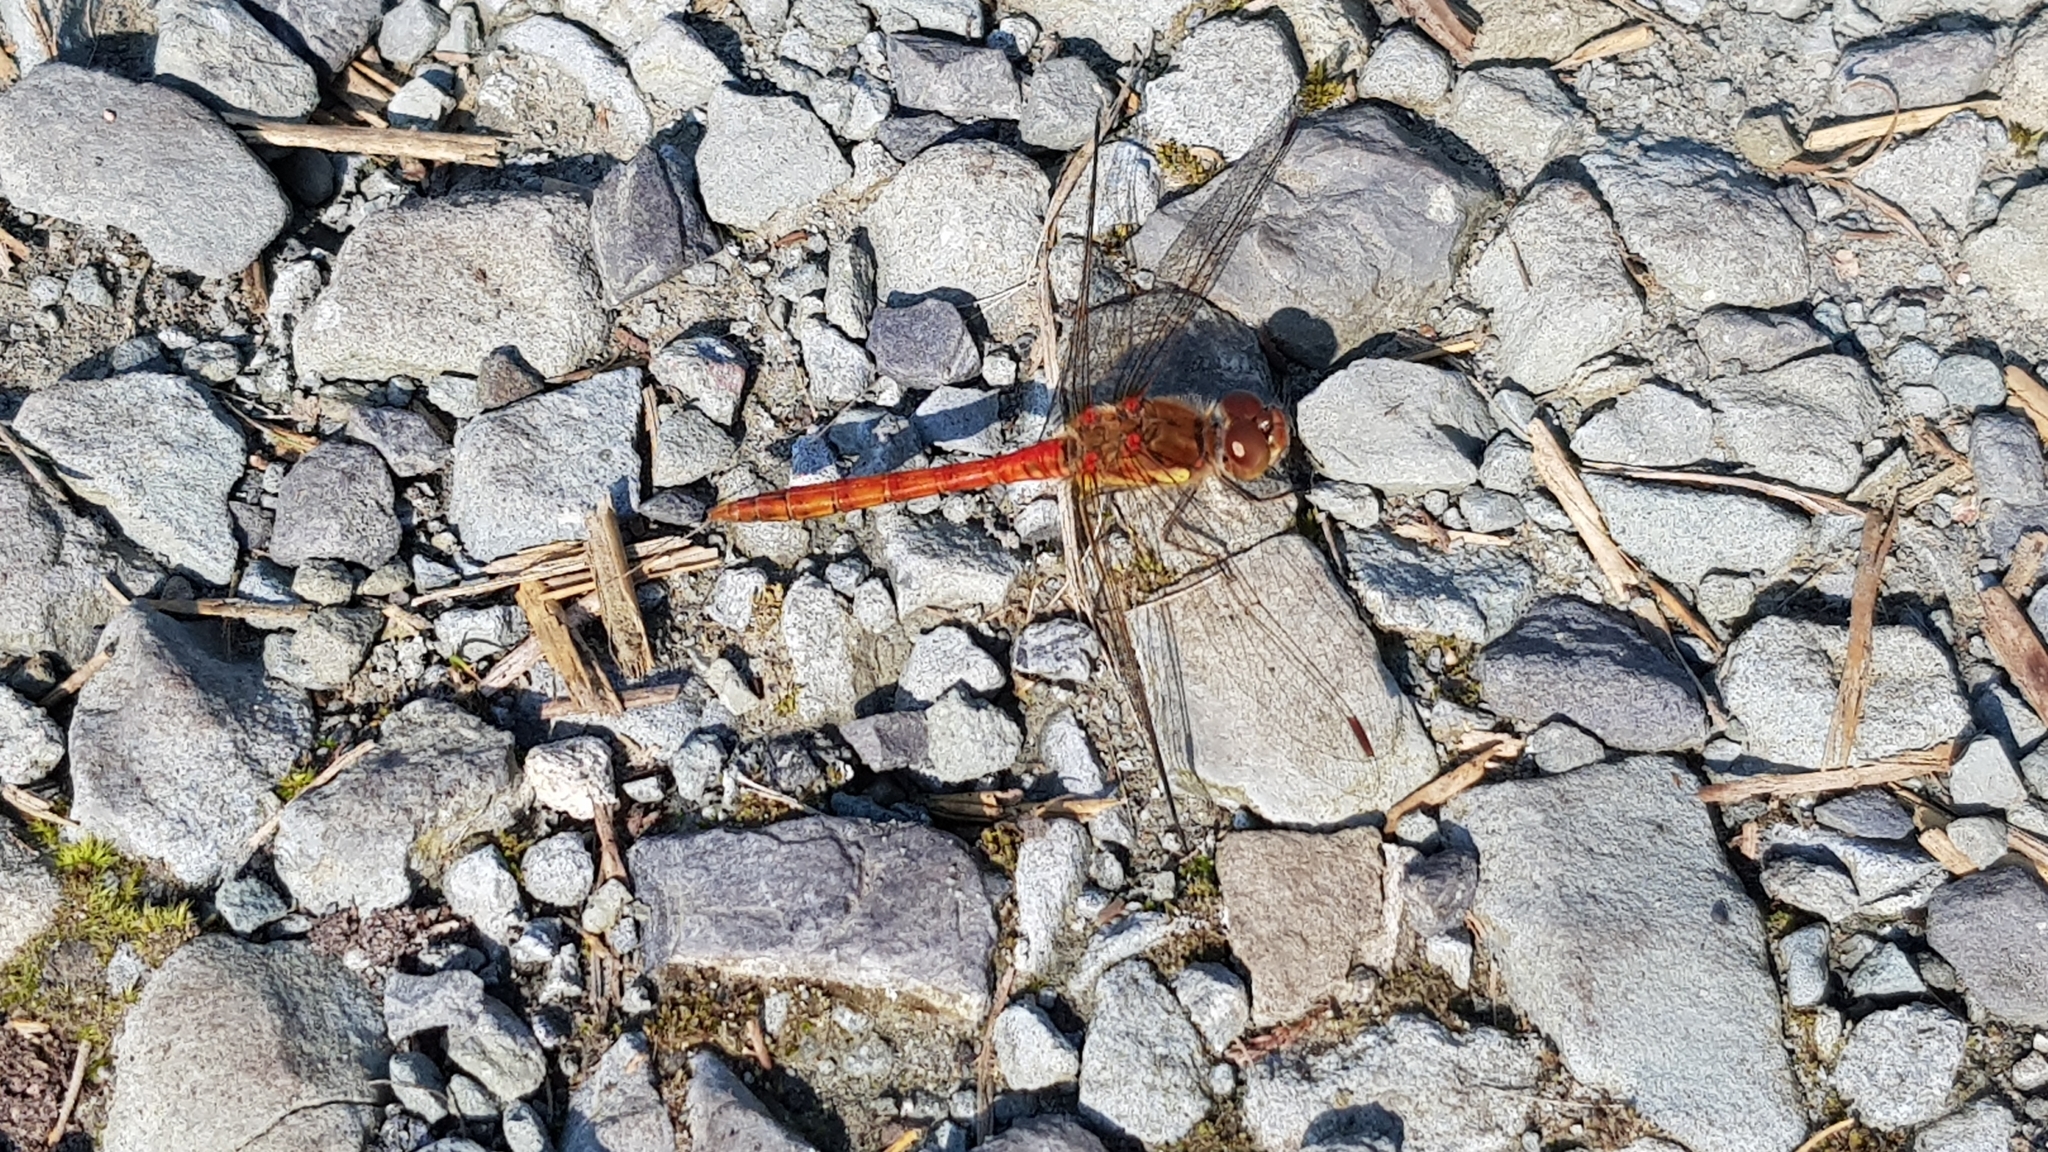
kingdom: Animalia
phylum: Arthropoda
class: Insecta
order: Odonata
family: Libellulidae
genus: Sympetrum
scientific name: Sympetrum striolatum
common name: Common darter
